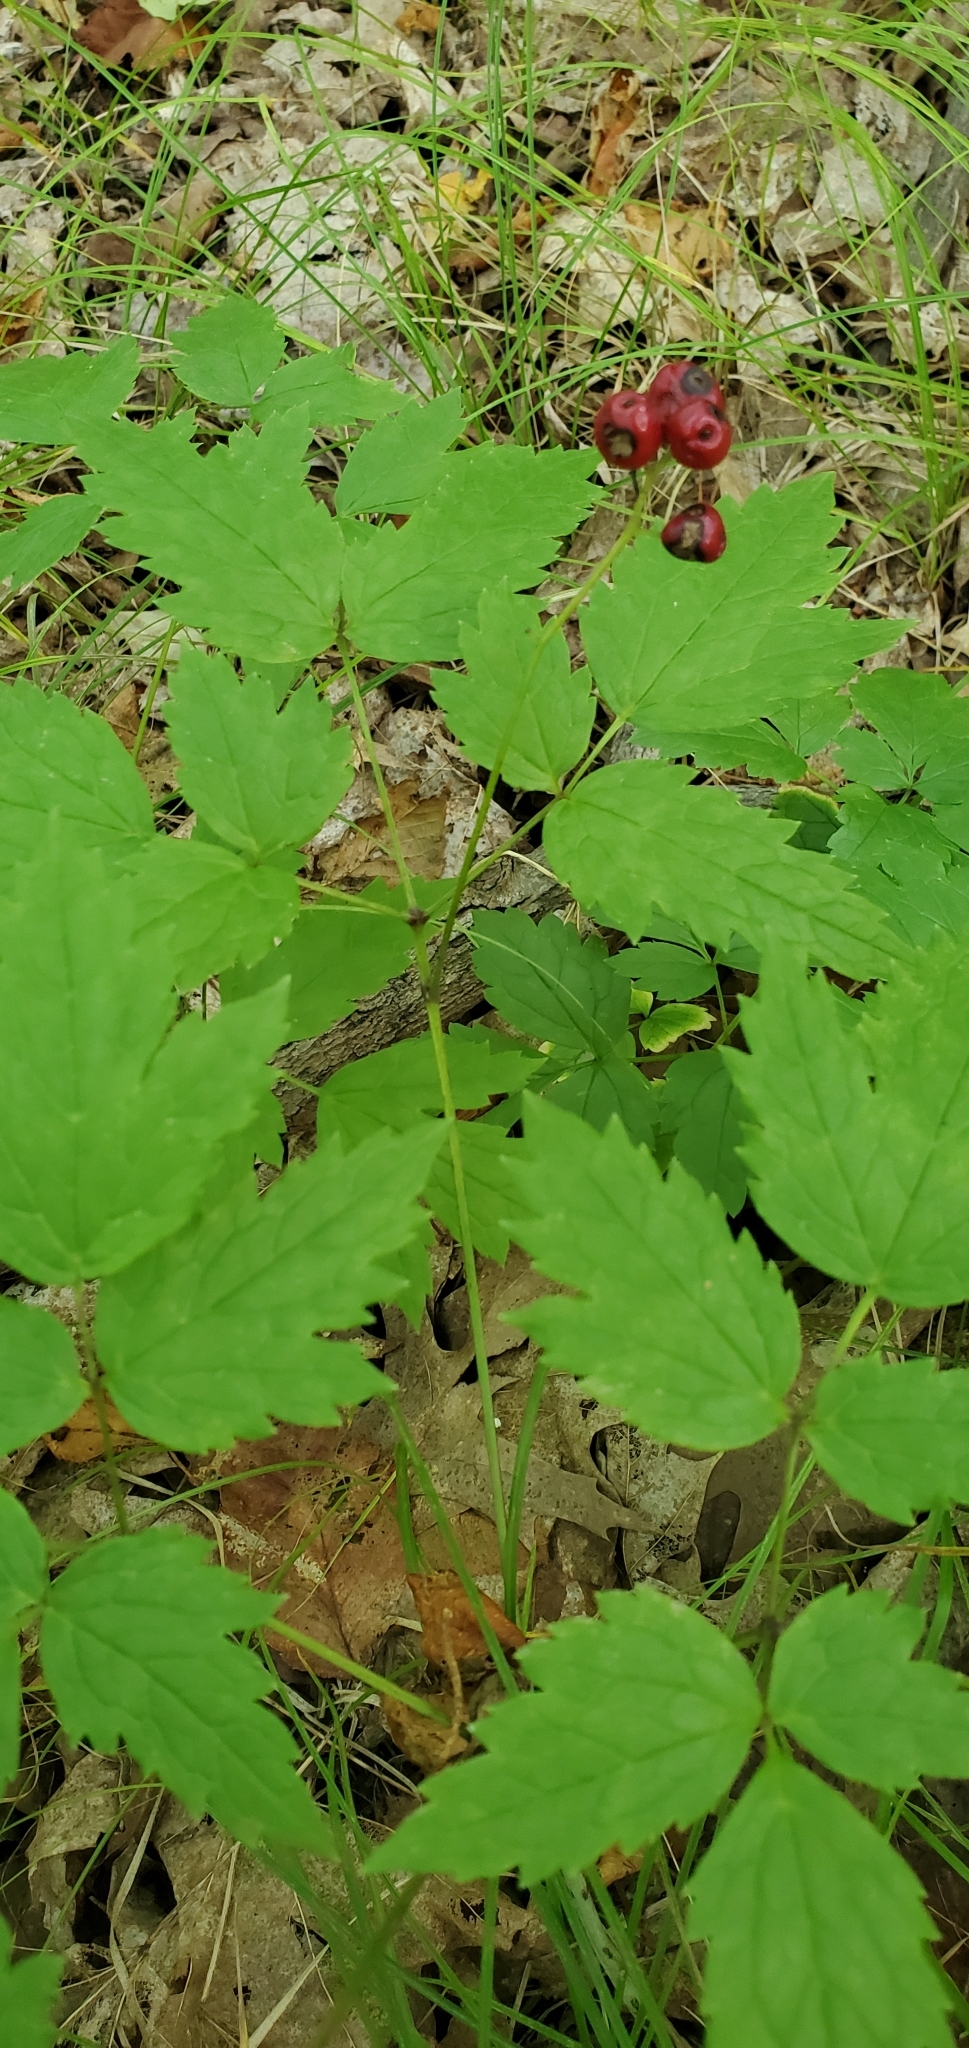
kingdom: Plantae
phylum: Tracheophyta
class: Magnoliopsida
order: Ranunculales
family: Ranunculaceae
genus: Actaea
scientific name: Actaea rubra
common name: Red baneberry
